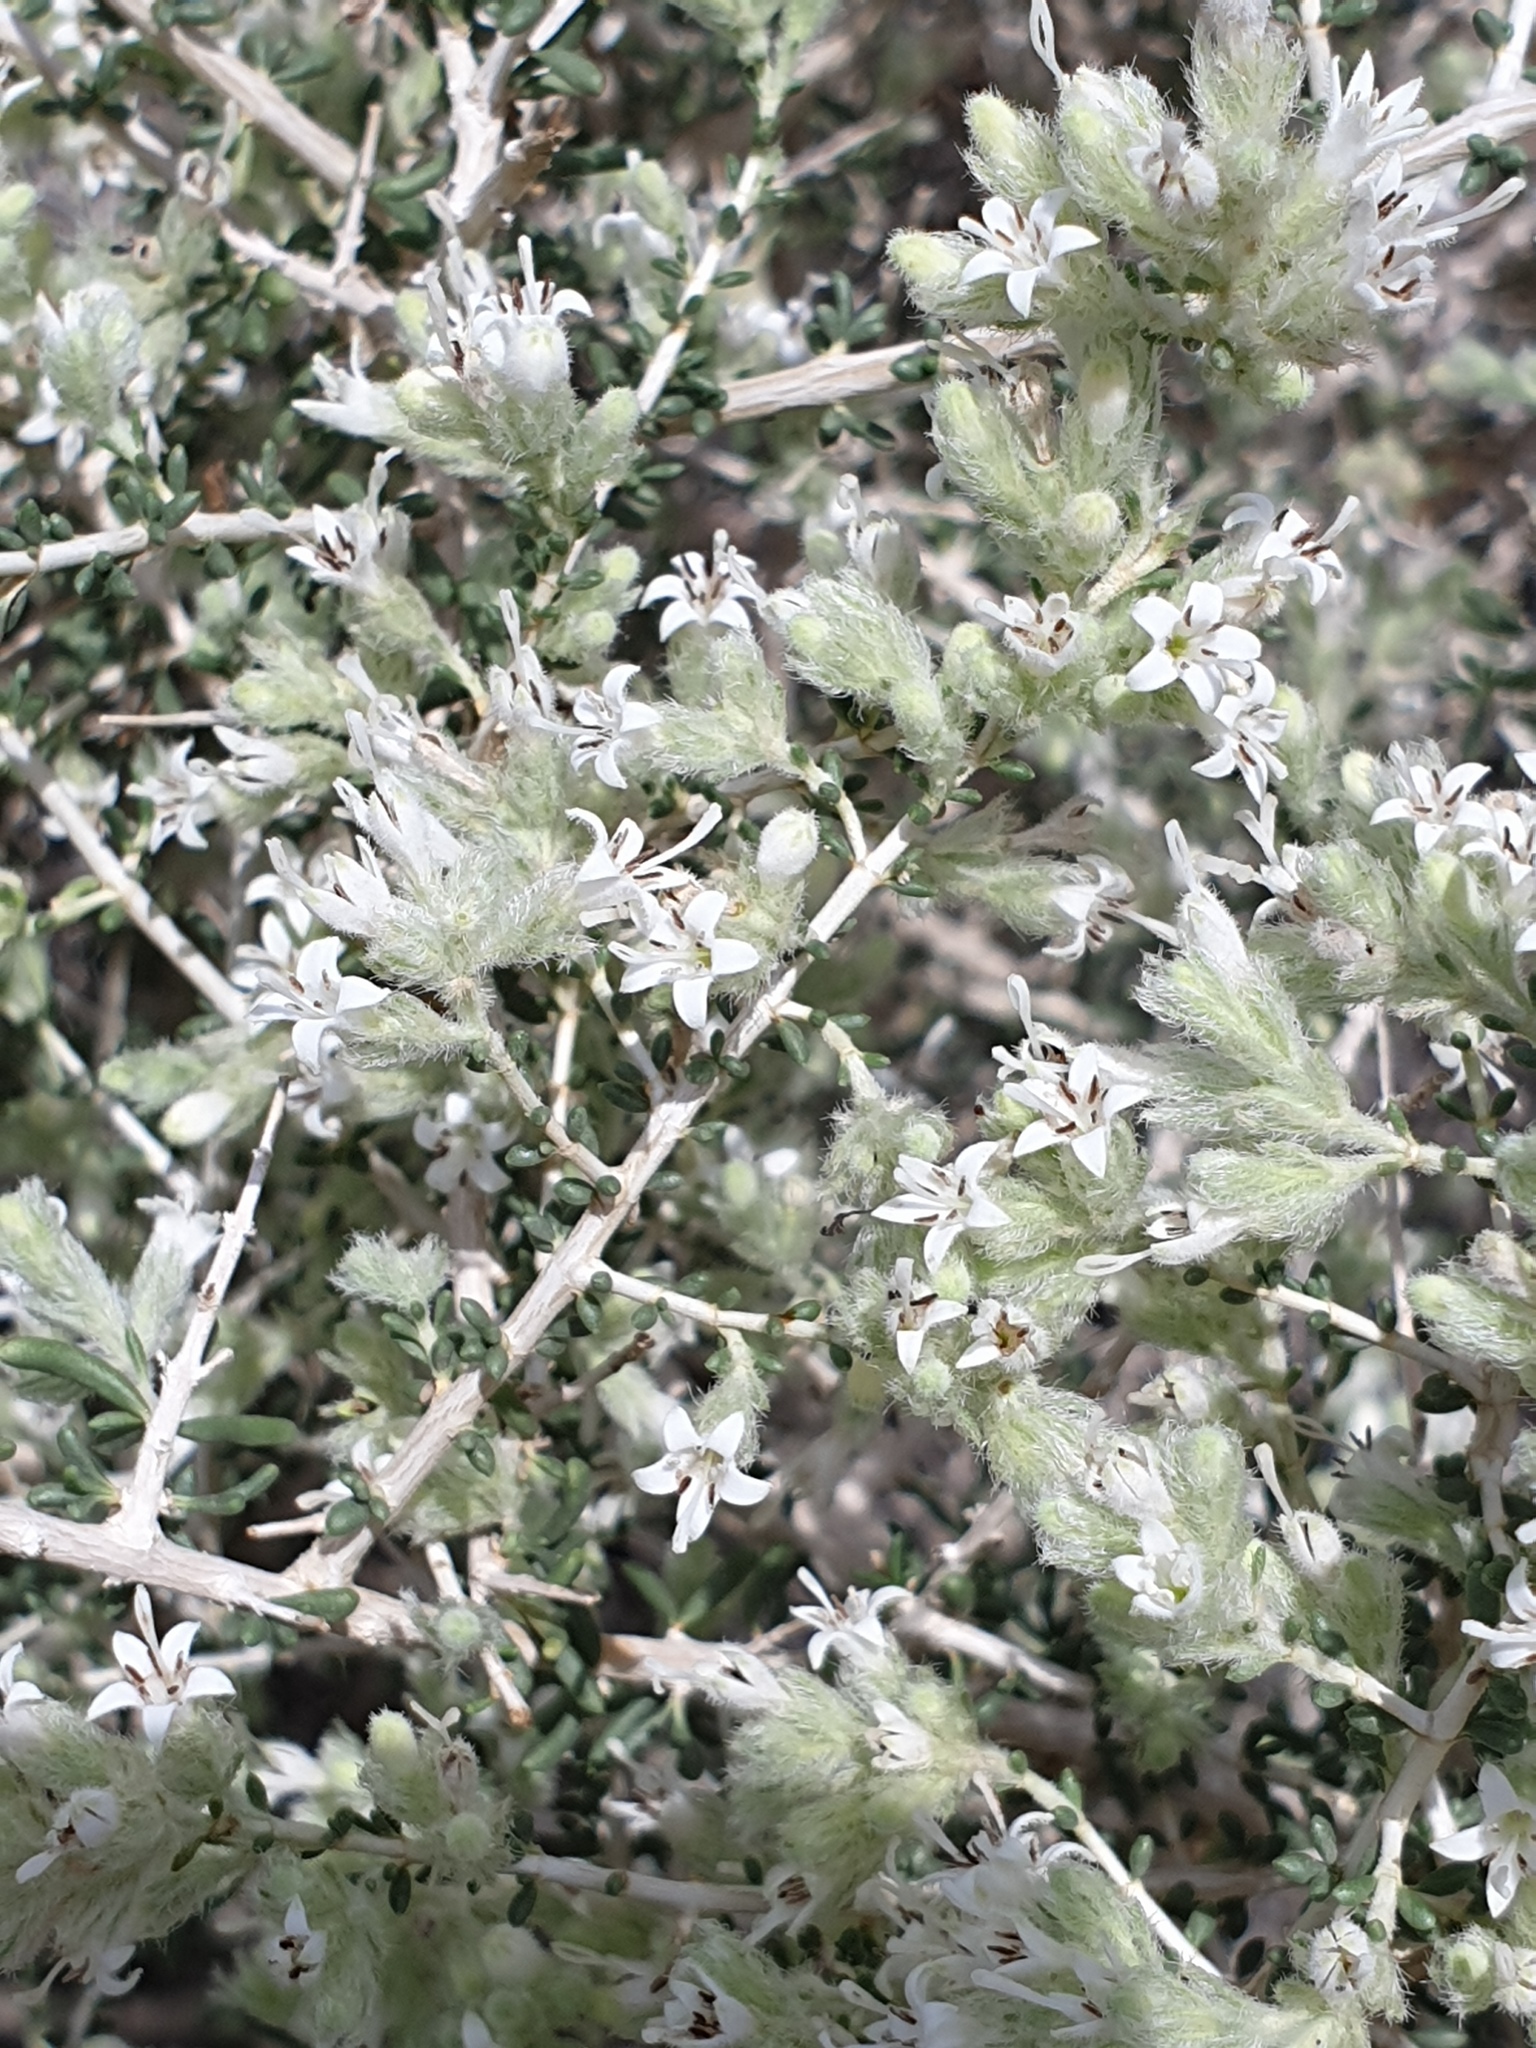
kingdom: Plantae
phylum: Tracheophyta
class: Magnoliopsida
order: Gentianales
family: Rubiaceae
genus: Plocama
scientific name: Plocama aucheri
